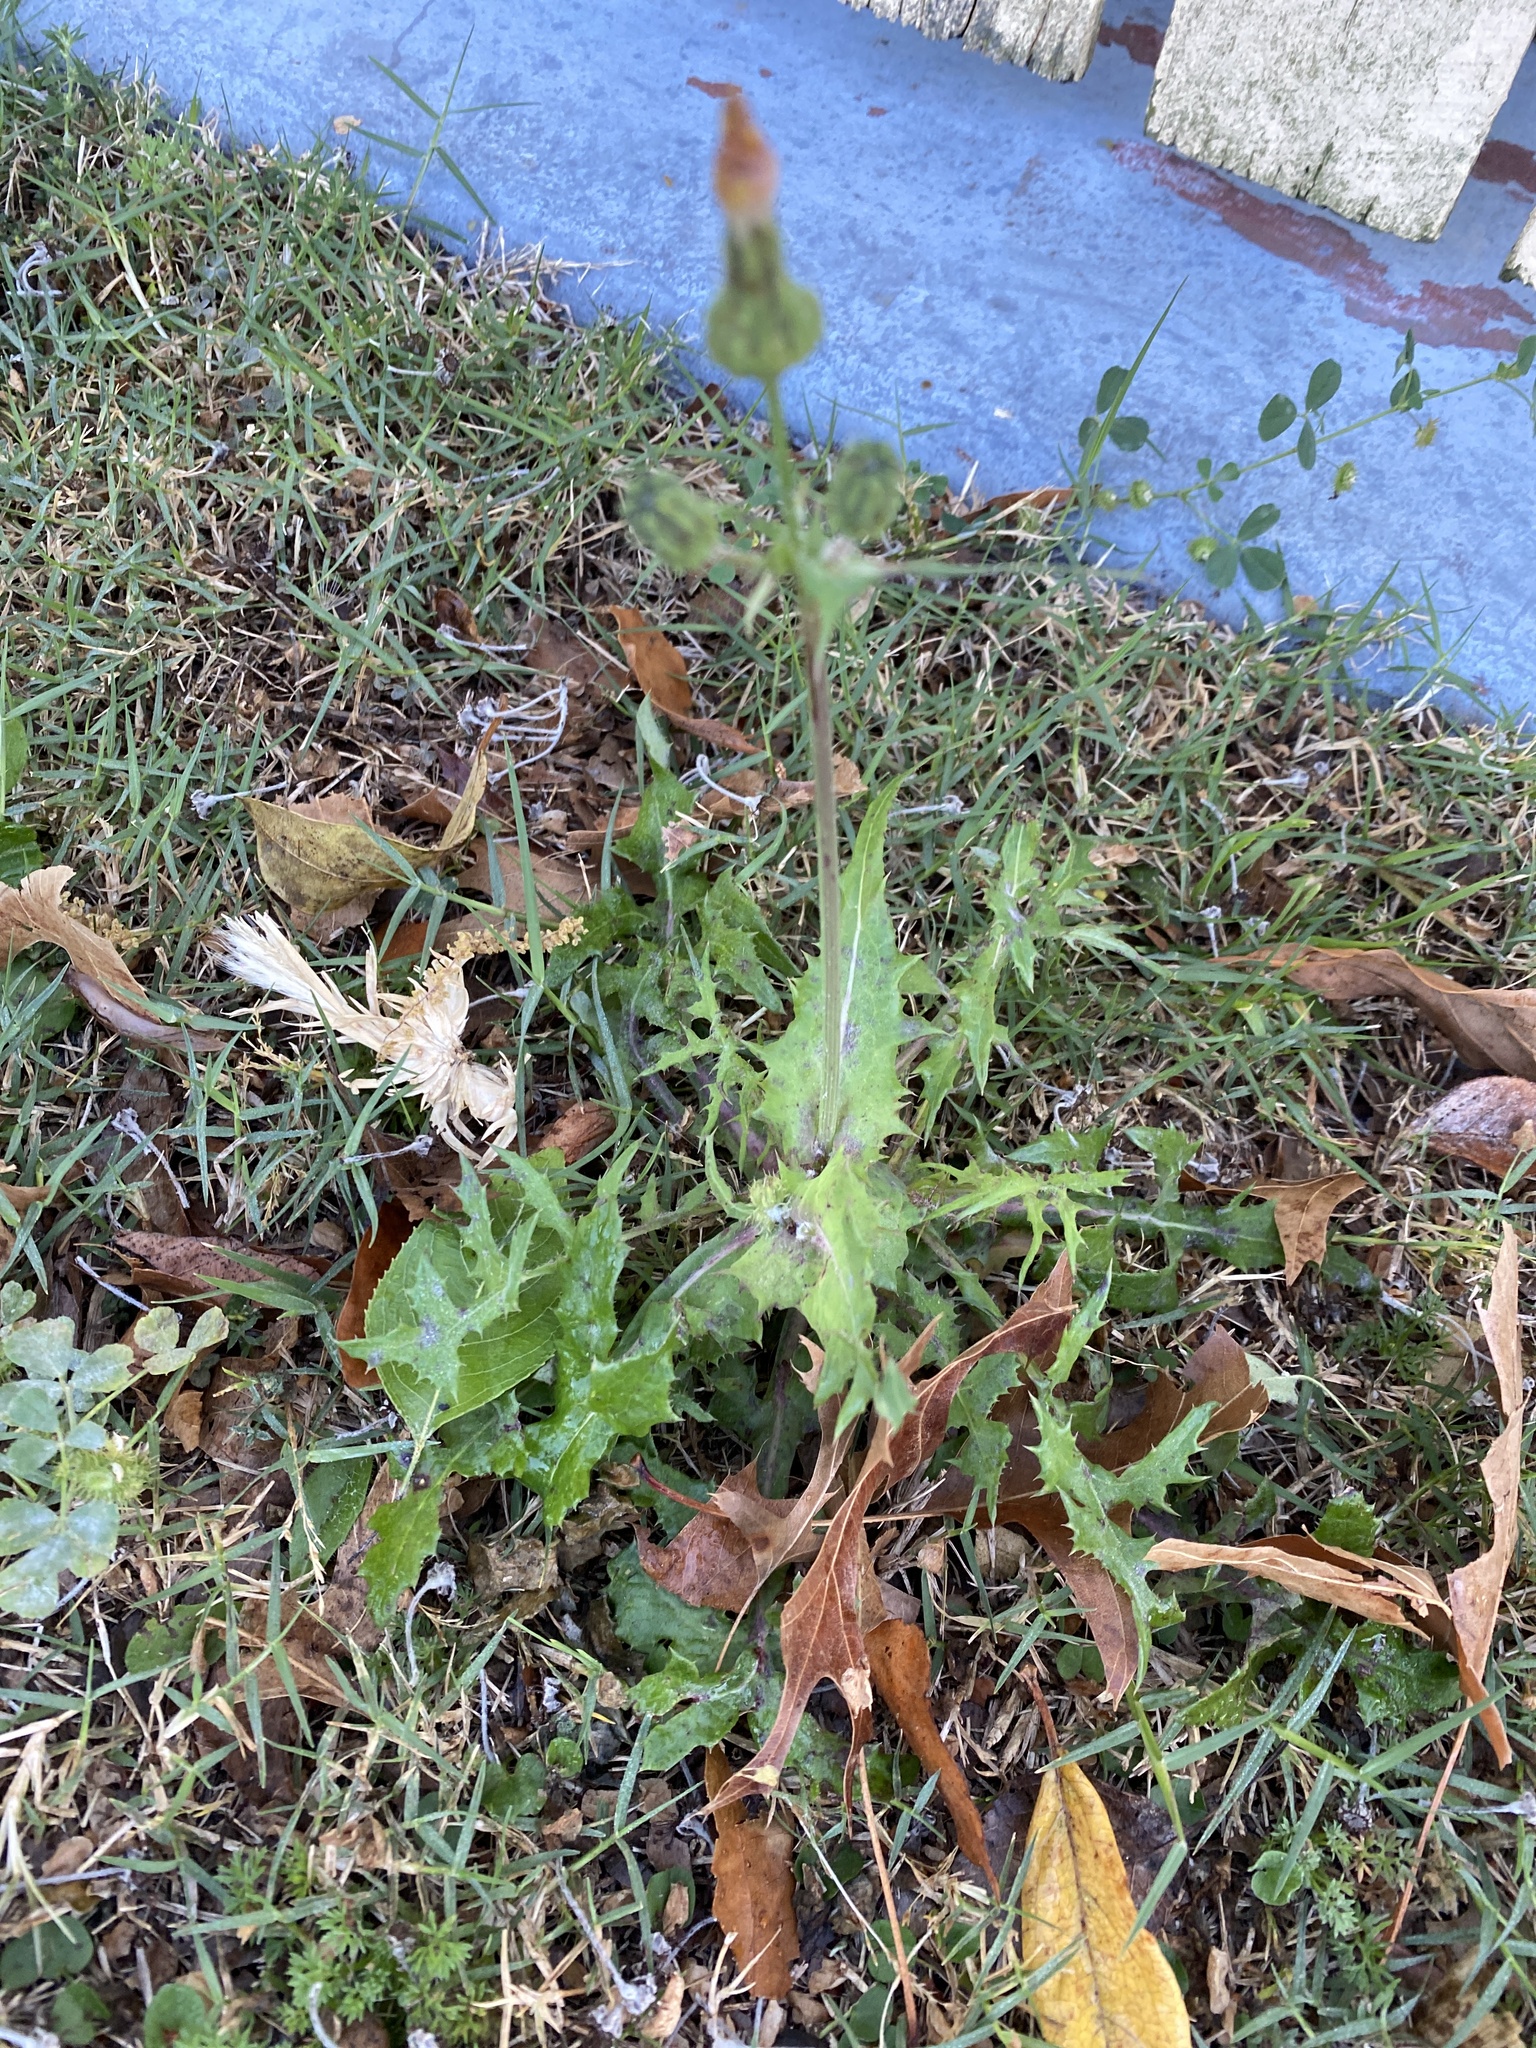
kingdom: Plantae
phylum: Tracheophyta
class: Magnoliopsida
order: Asterales
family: Asteraceae
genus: Sonchus
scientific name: Sonchus oleraceus
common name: Common sowthistle
